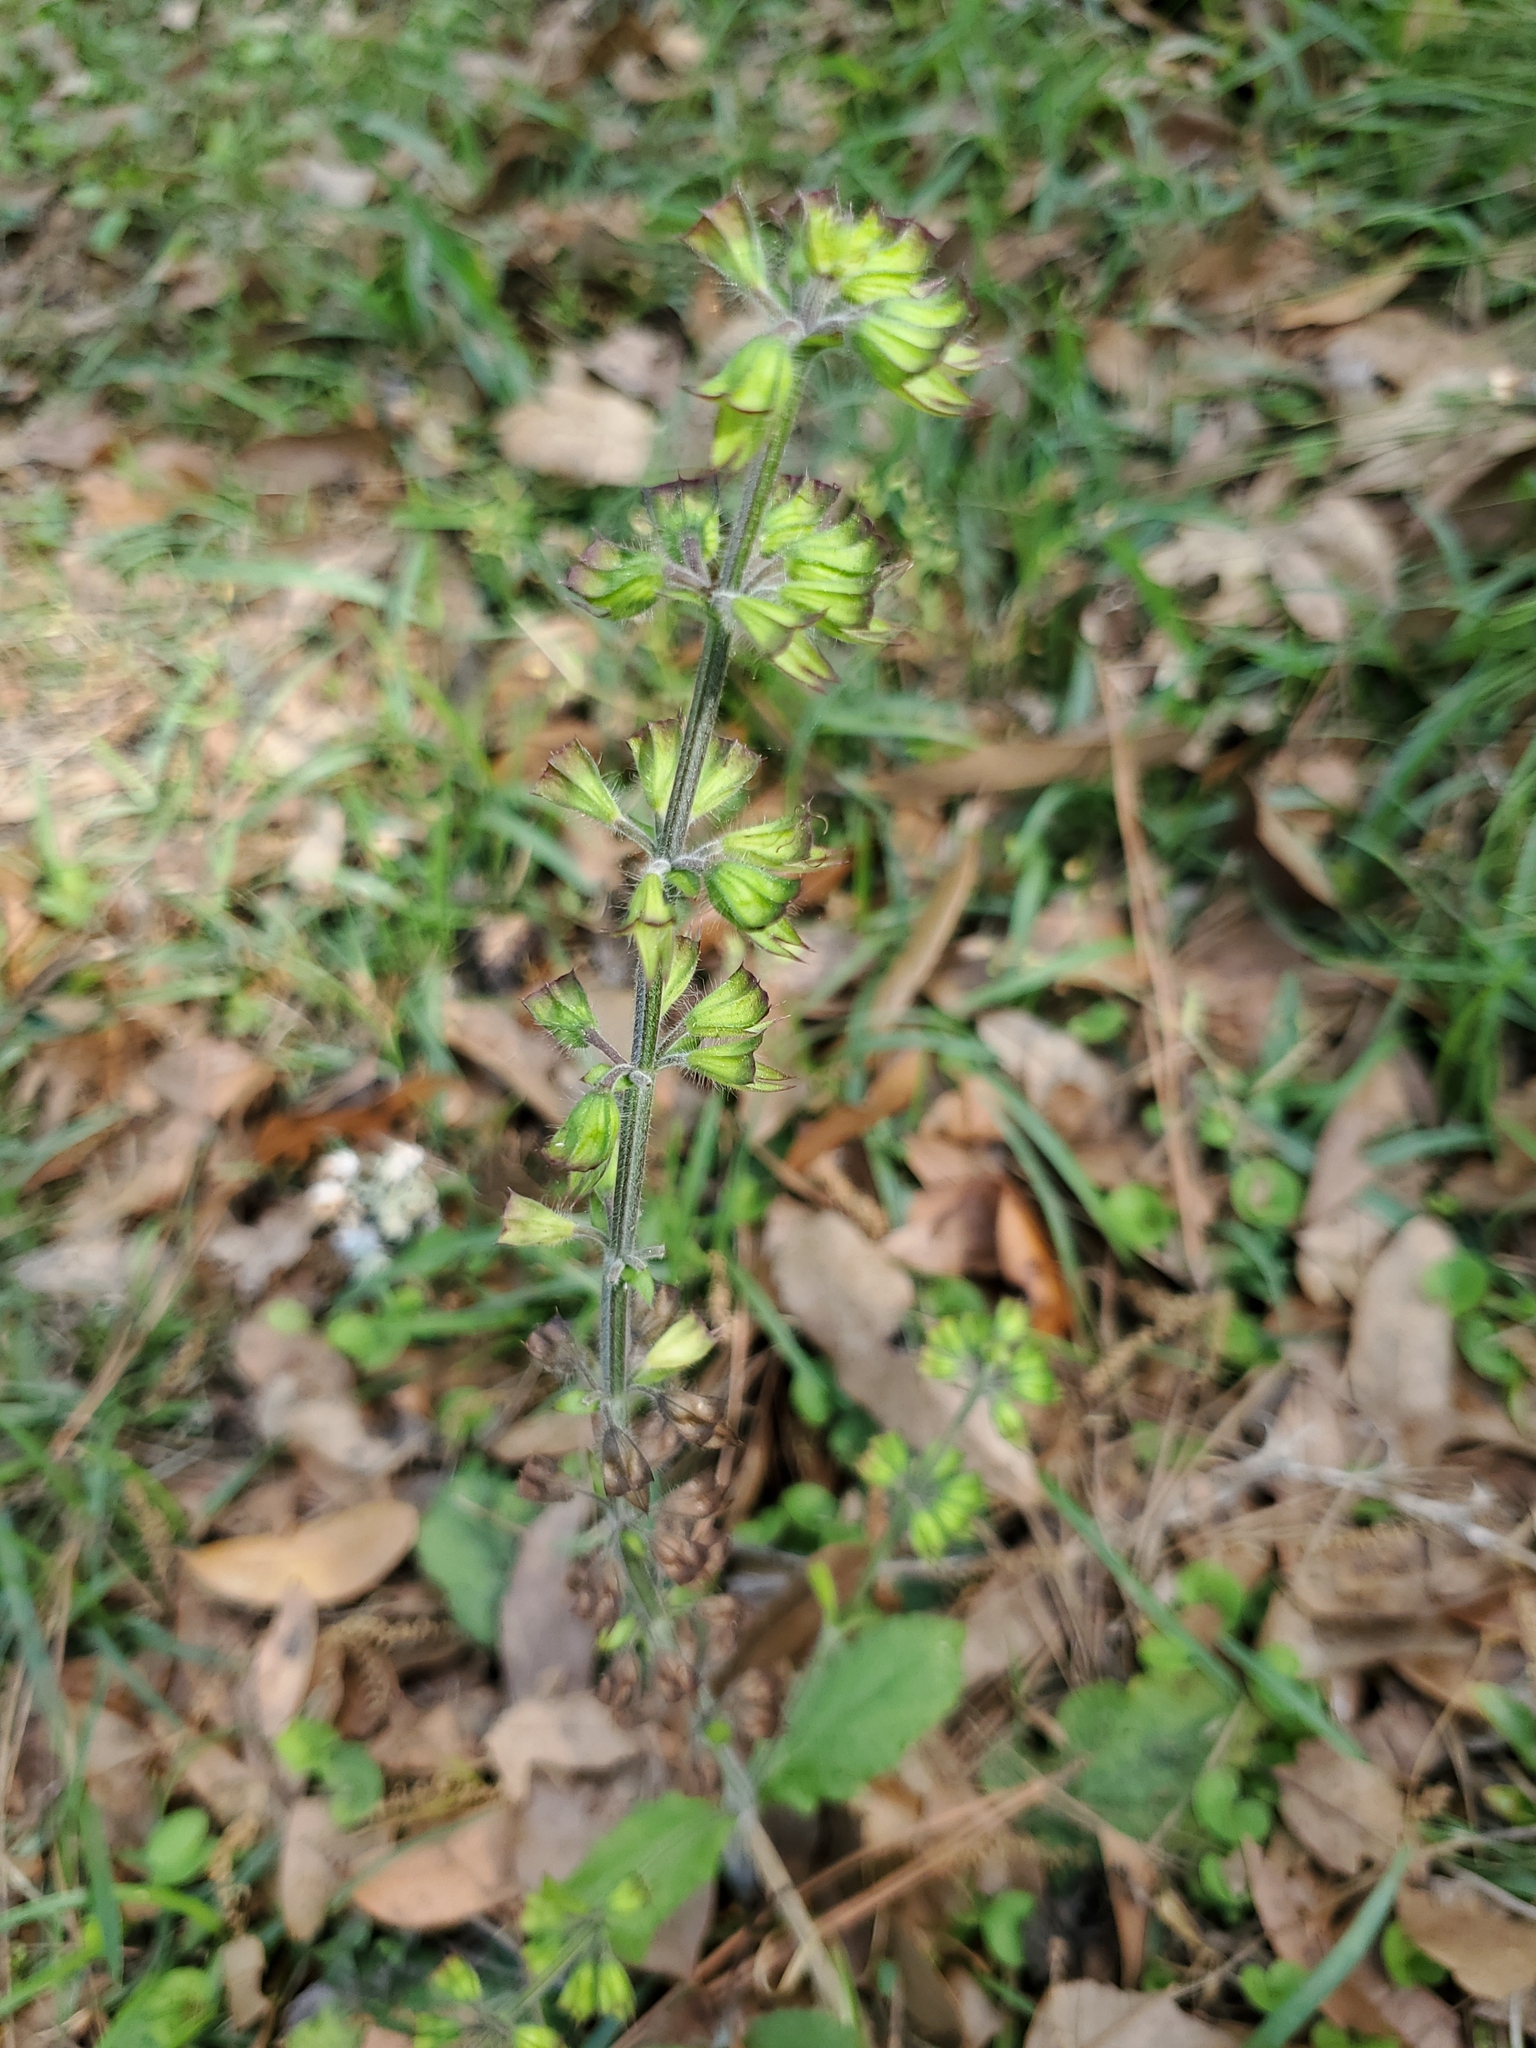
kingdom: Plantae
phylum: Tracheophyta
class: Magnoliopsida
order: Lamiales
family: Lamiaceae
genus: Salvia
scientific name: Salvia lyrata
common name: Cancerweed
